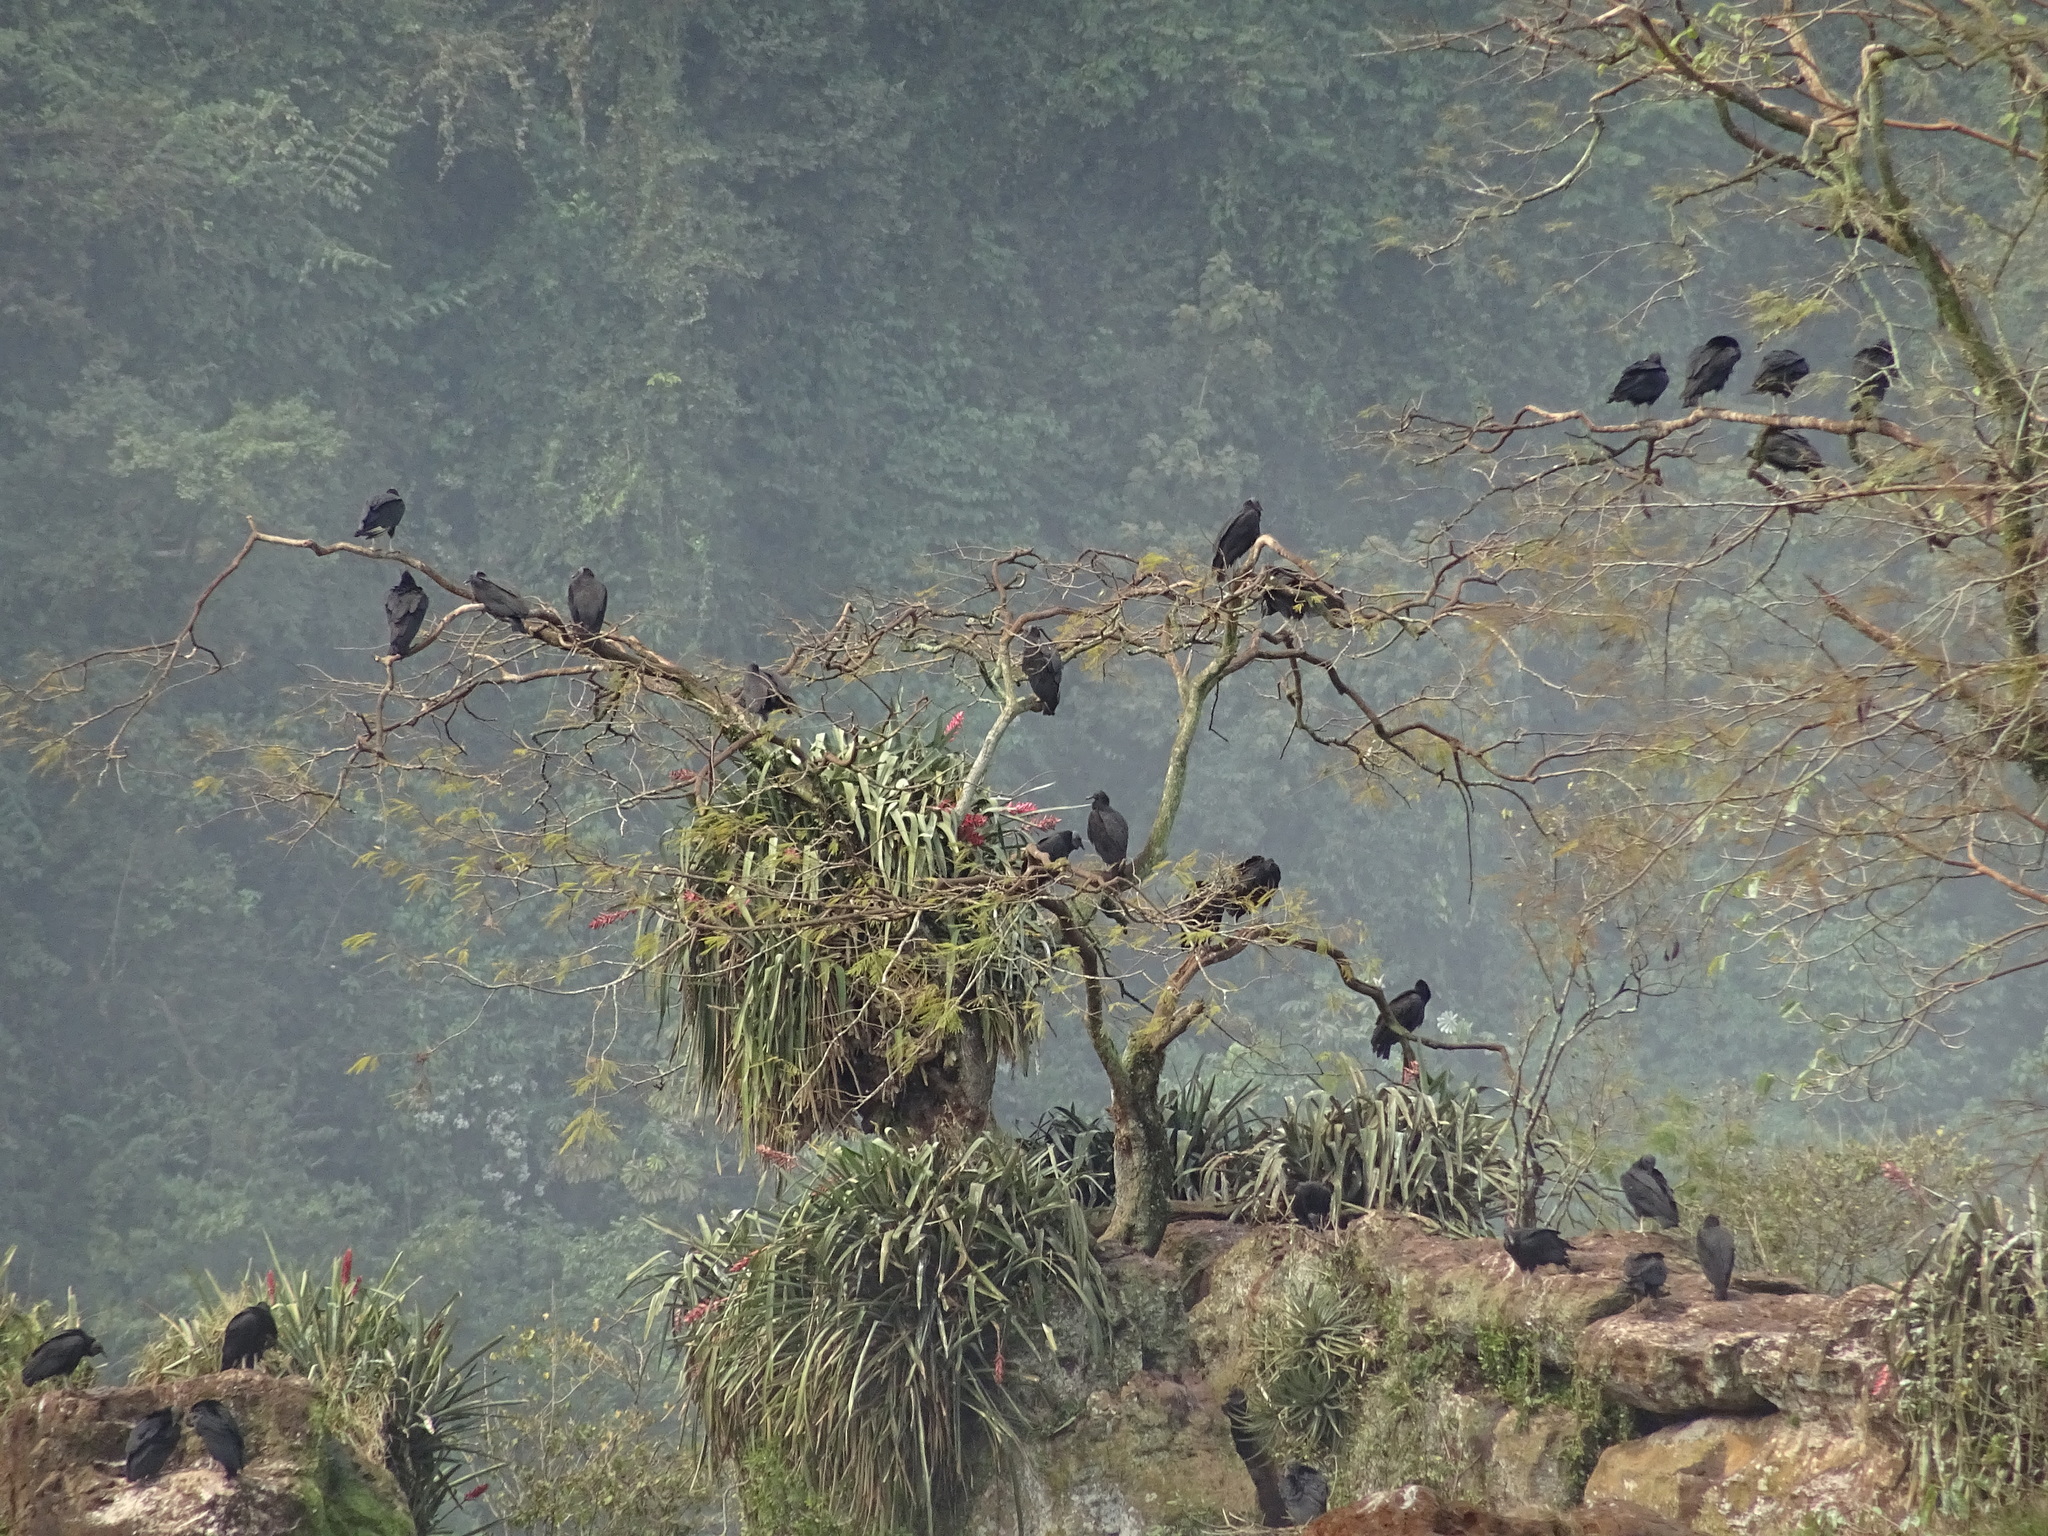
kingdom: Animalia
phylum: Chordata
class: Aves
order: Accipitriformes
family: Cathartidae
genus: Coragyps
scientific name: Coragyps atratus
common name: Black vulture
